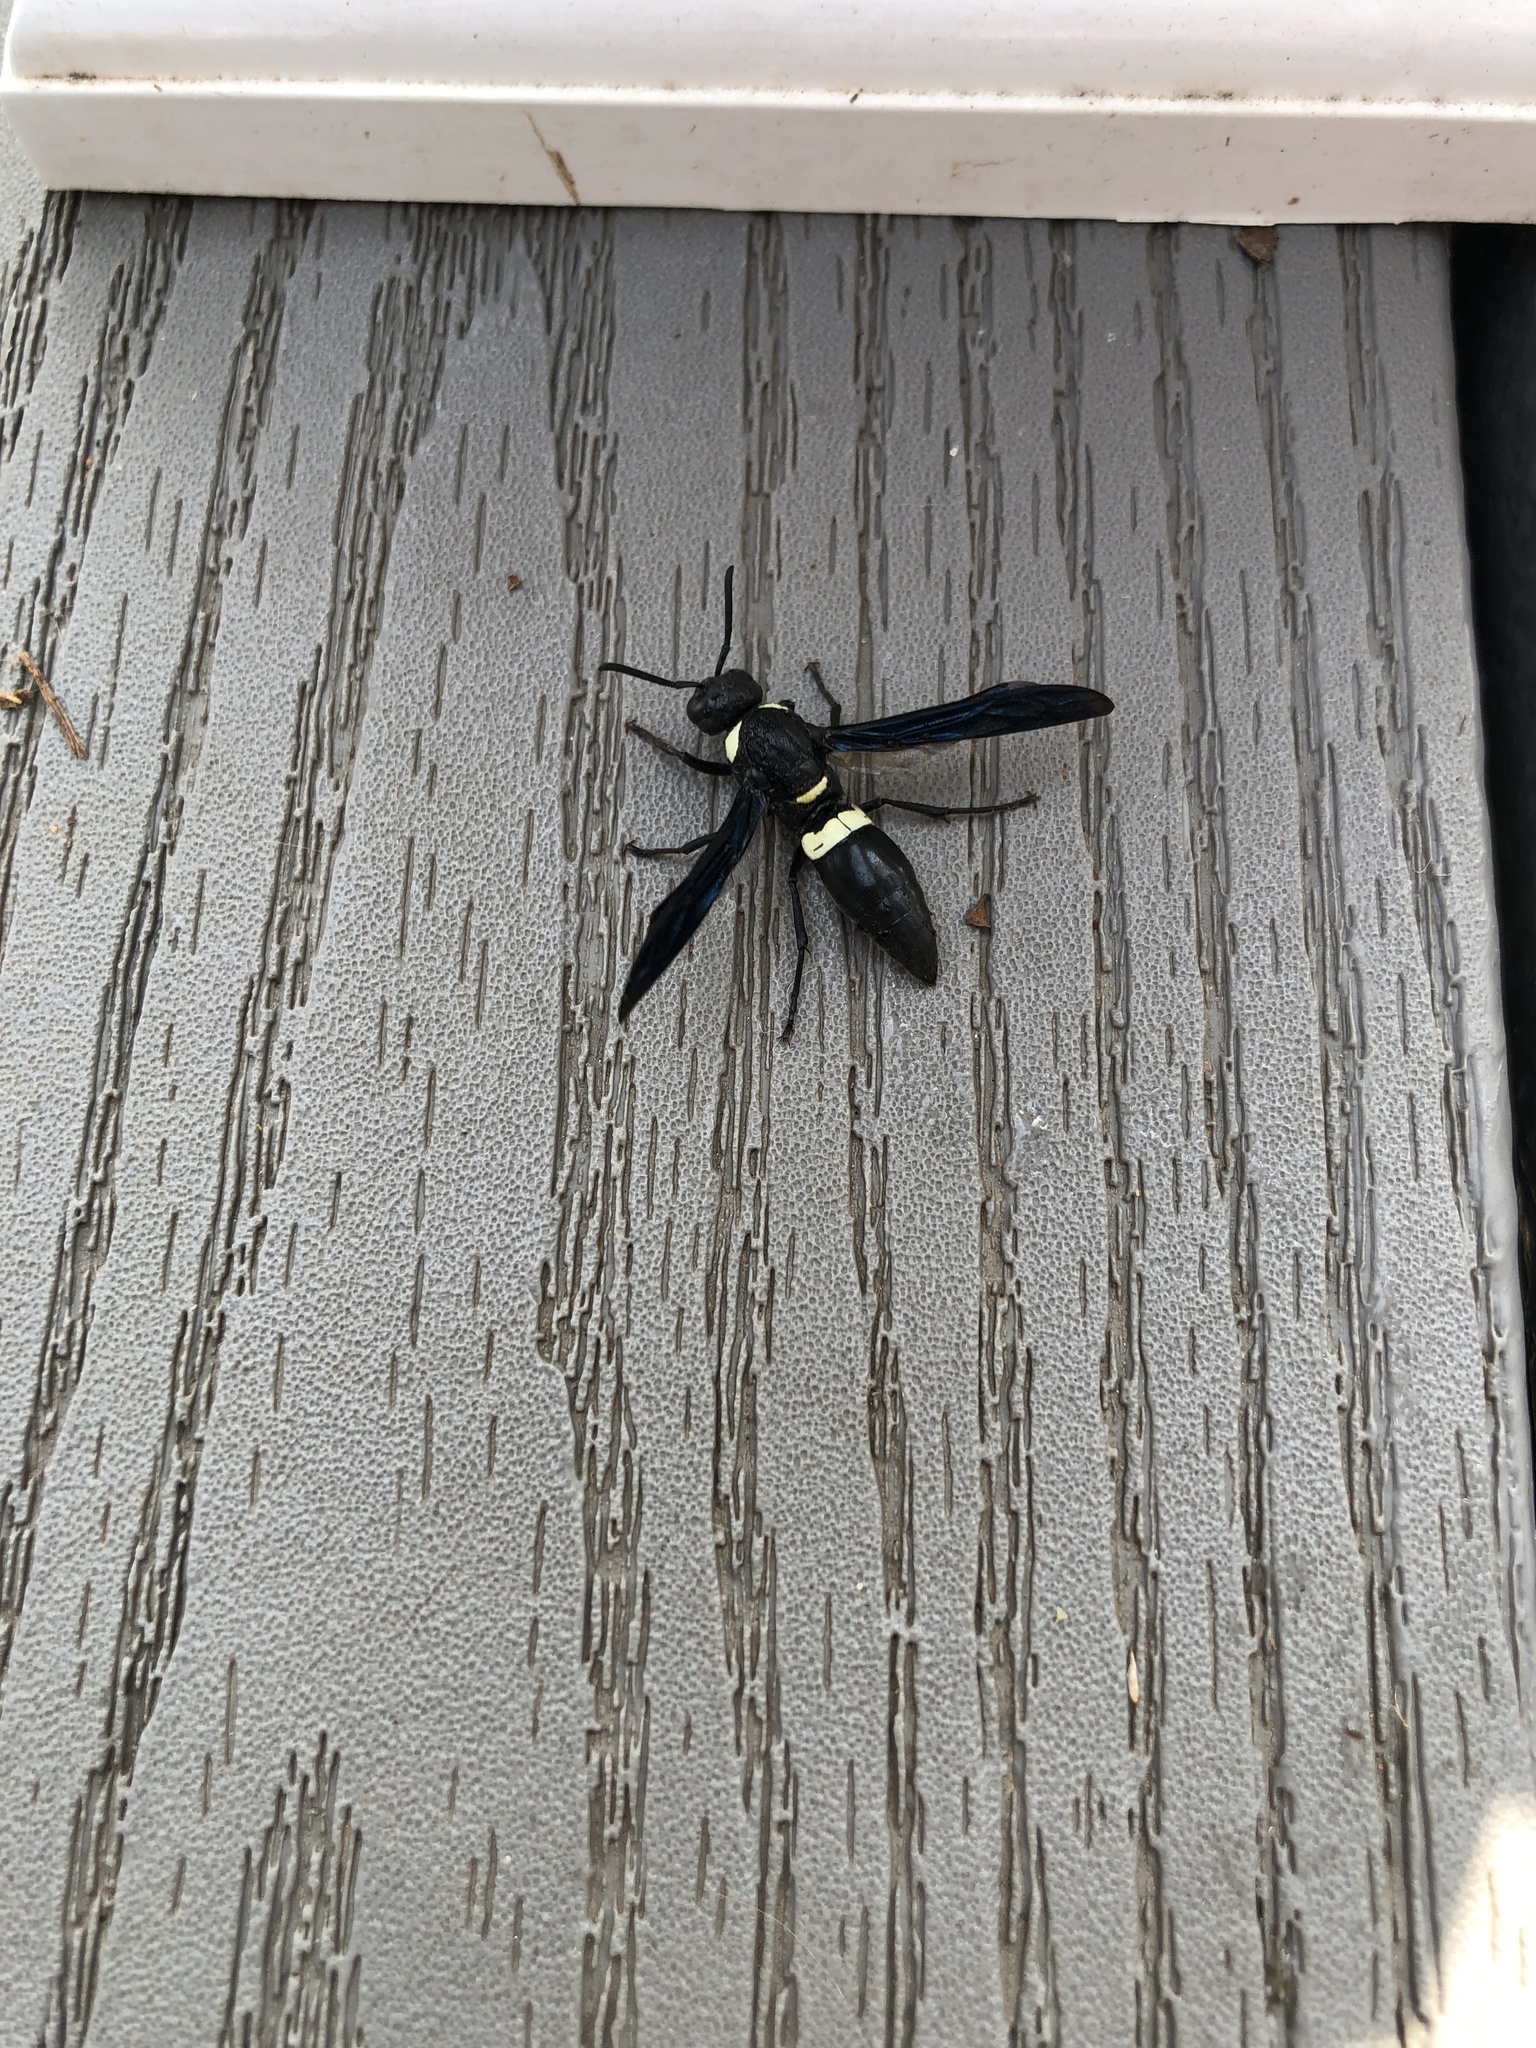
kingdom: Animalia
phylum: Arthropoda
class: Insecta
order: Hymenoptera
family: Eumenidae
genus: Monobia
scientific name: Monobia quadridens
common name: Four-toothed mason wasp
